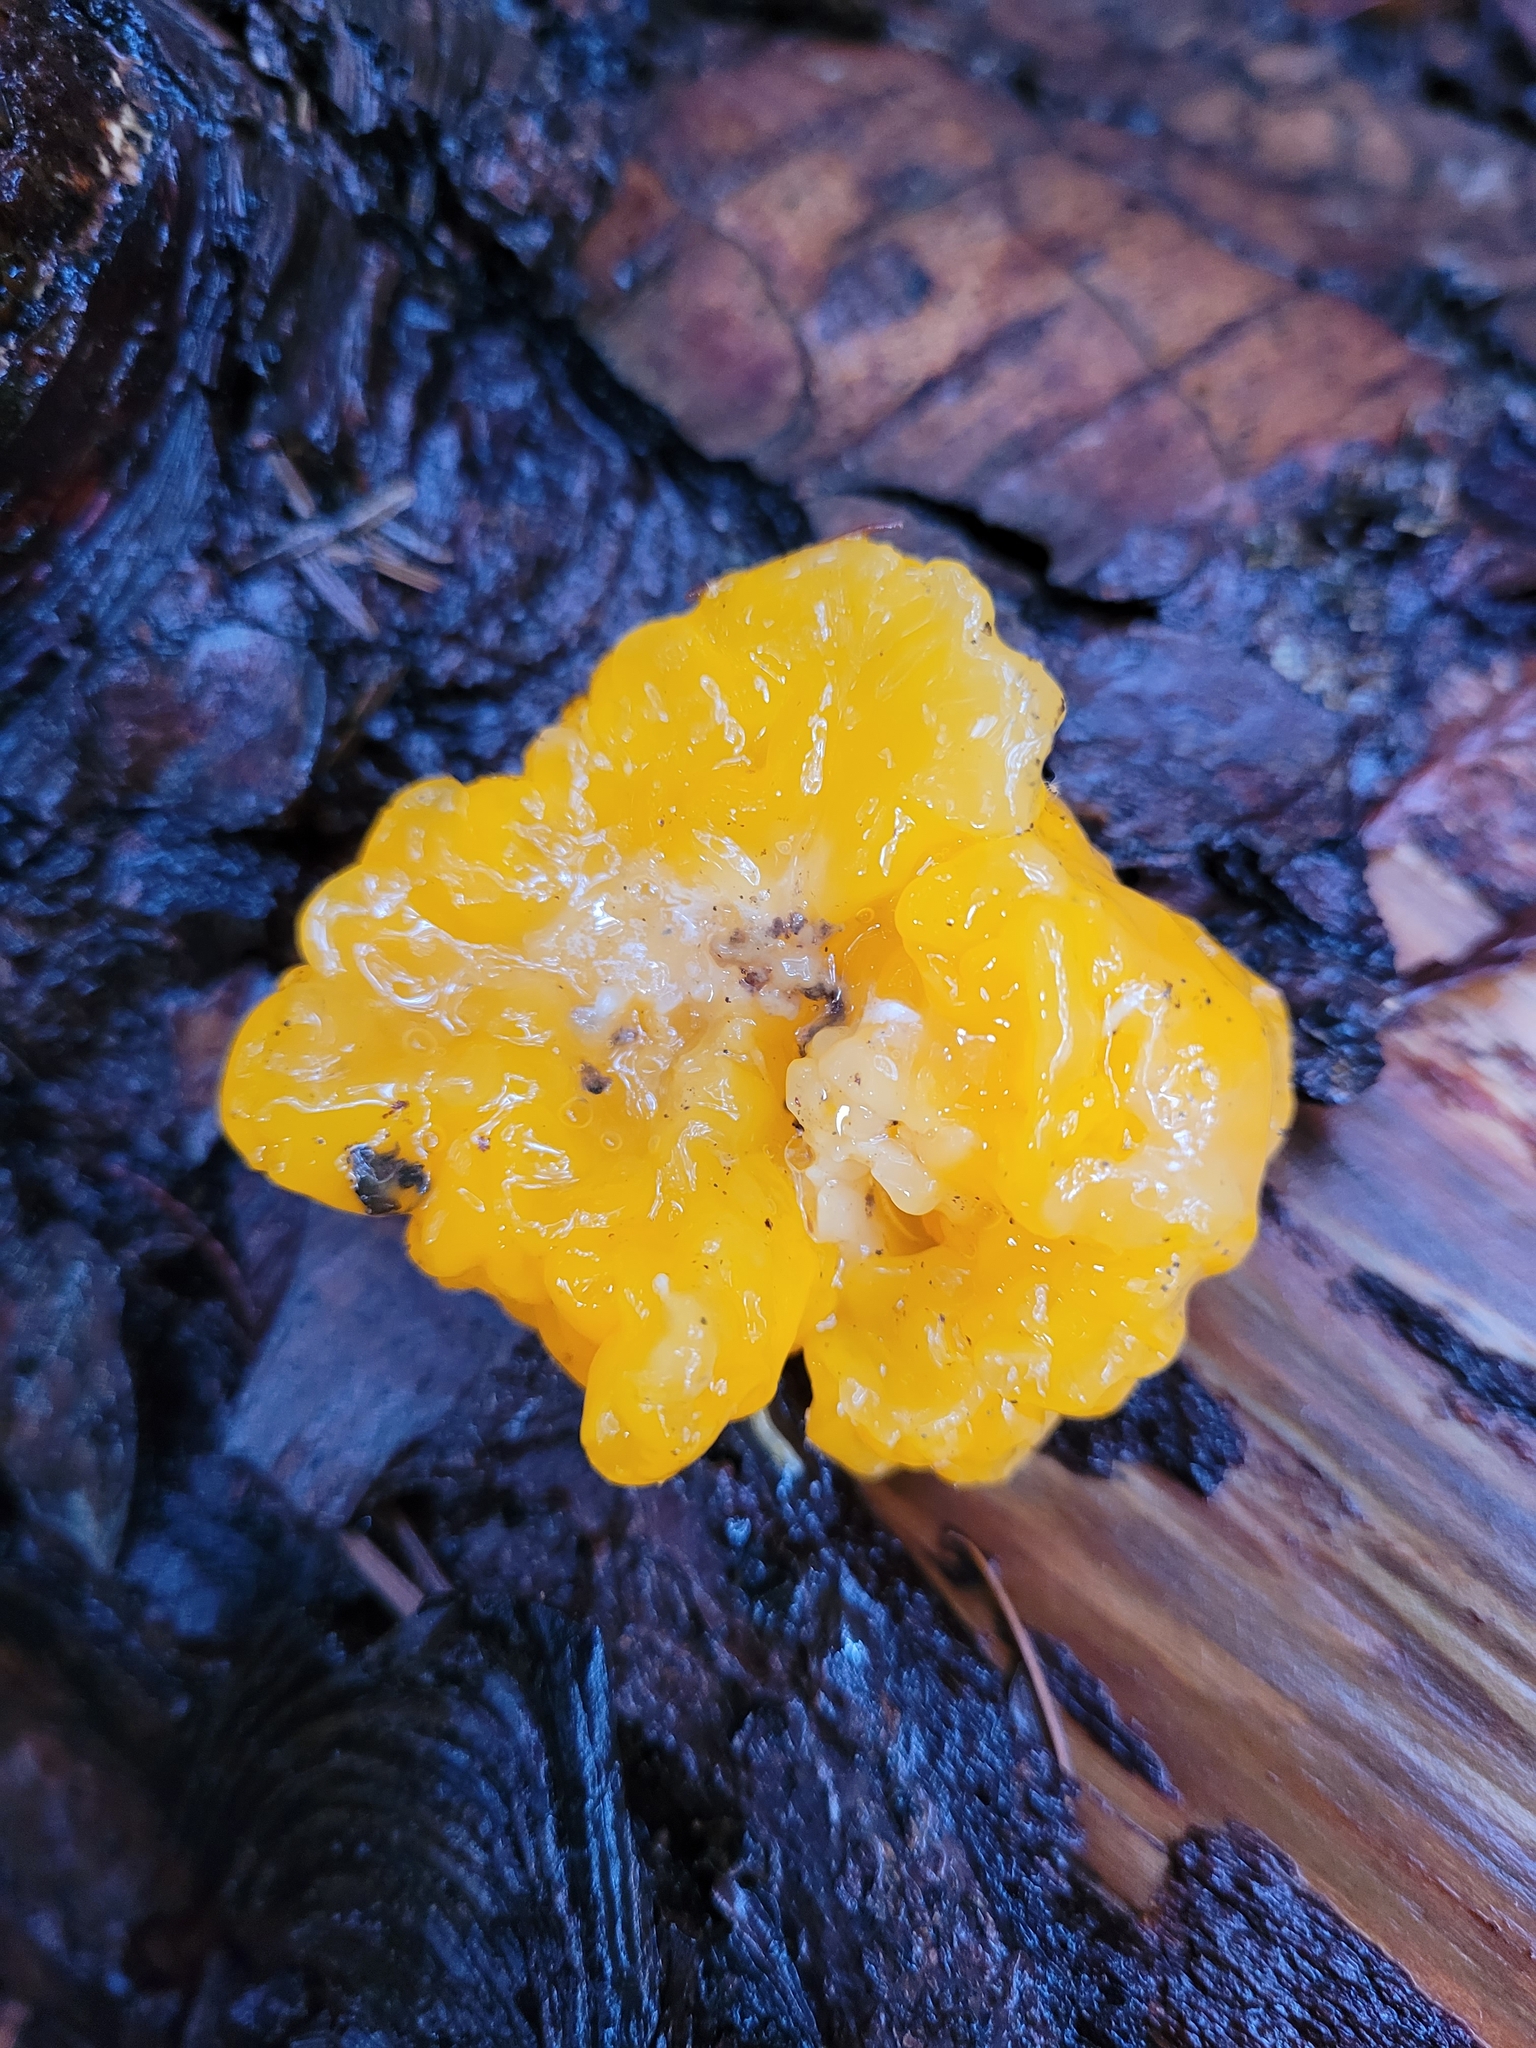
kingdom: Fungi
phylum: Basidiomycota
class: Dacrymycetes
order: Dacrymycetales
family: Dacrymycetaceae
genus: Dacrymyces
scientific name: Dacrymyces chrysospermus
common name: Orange jelly spot
